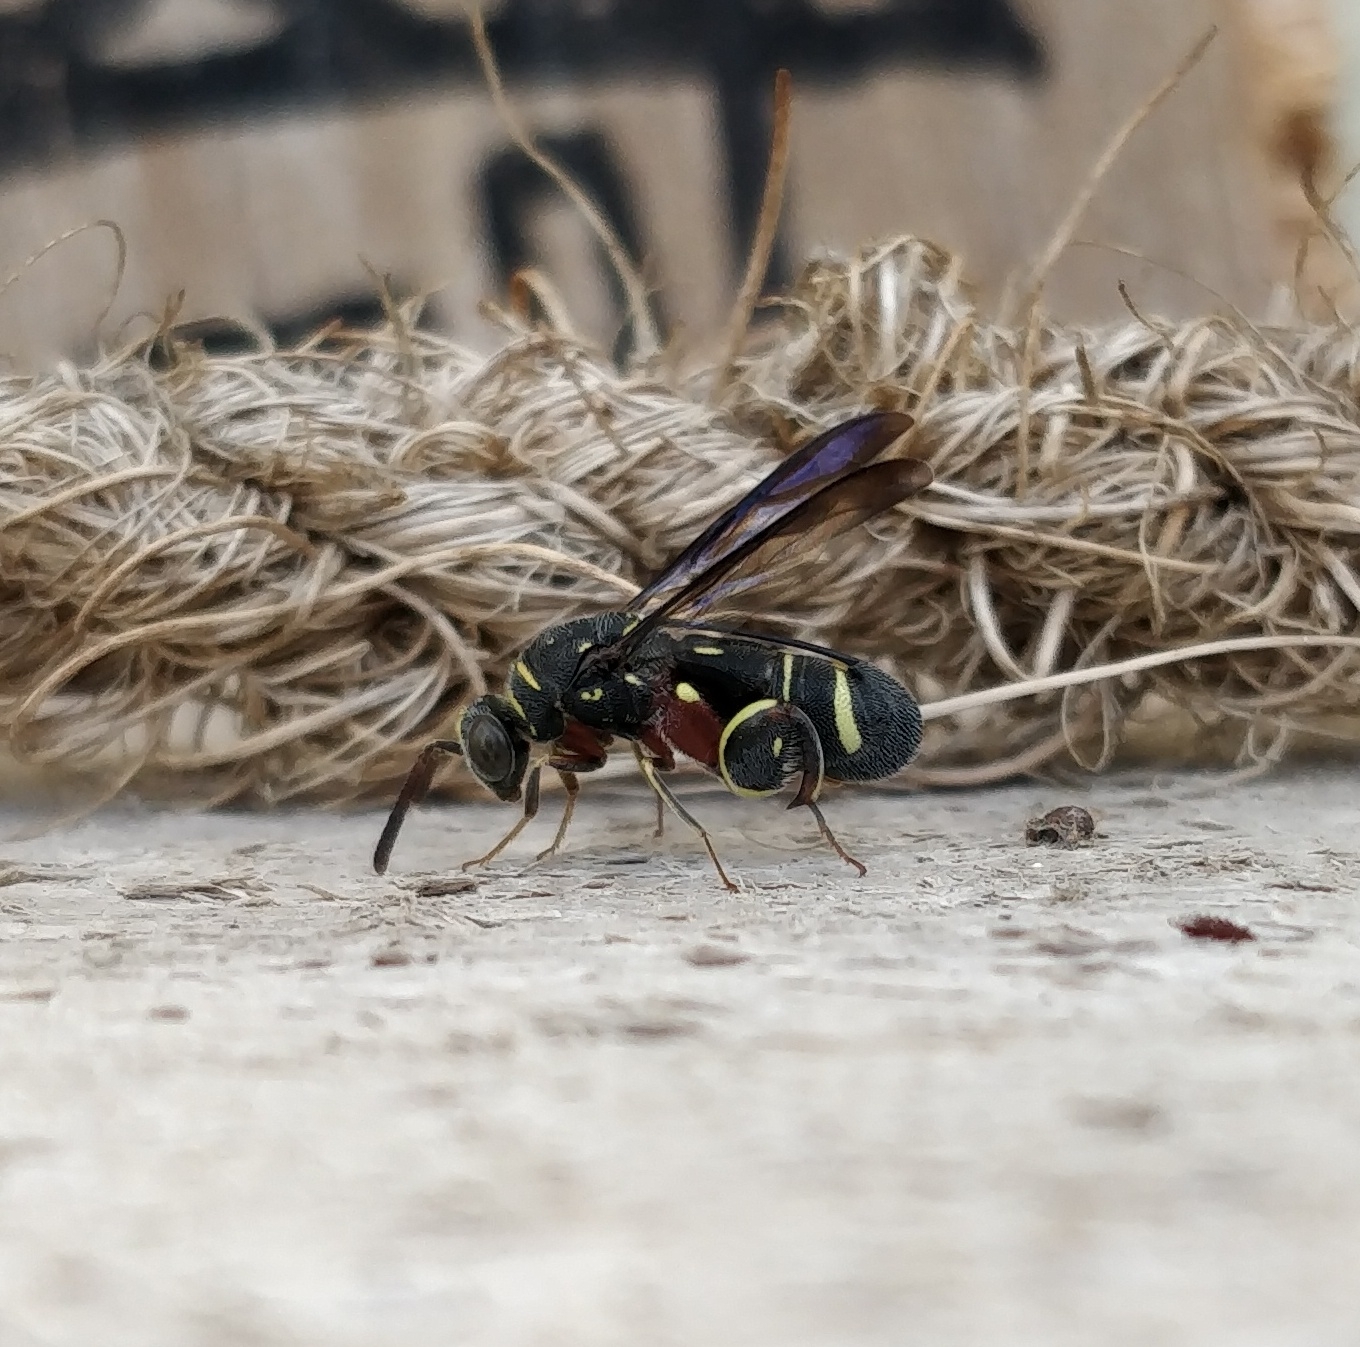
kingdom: Animalia
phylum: Arthropoda
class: Insecta
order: Hymenoptera
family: Leucospidae
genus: Leucospis
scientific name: Leucospis histrio
